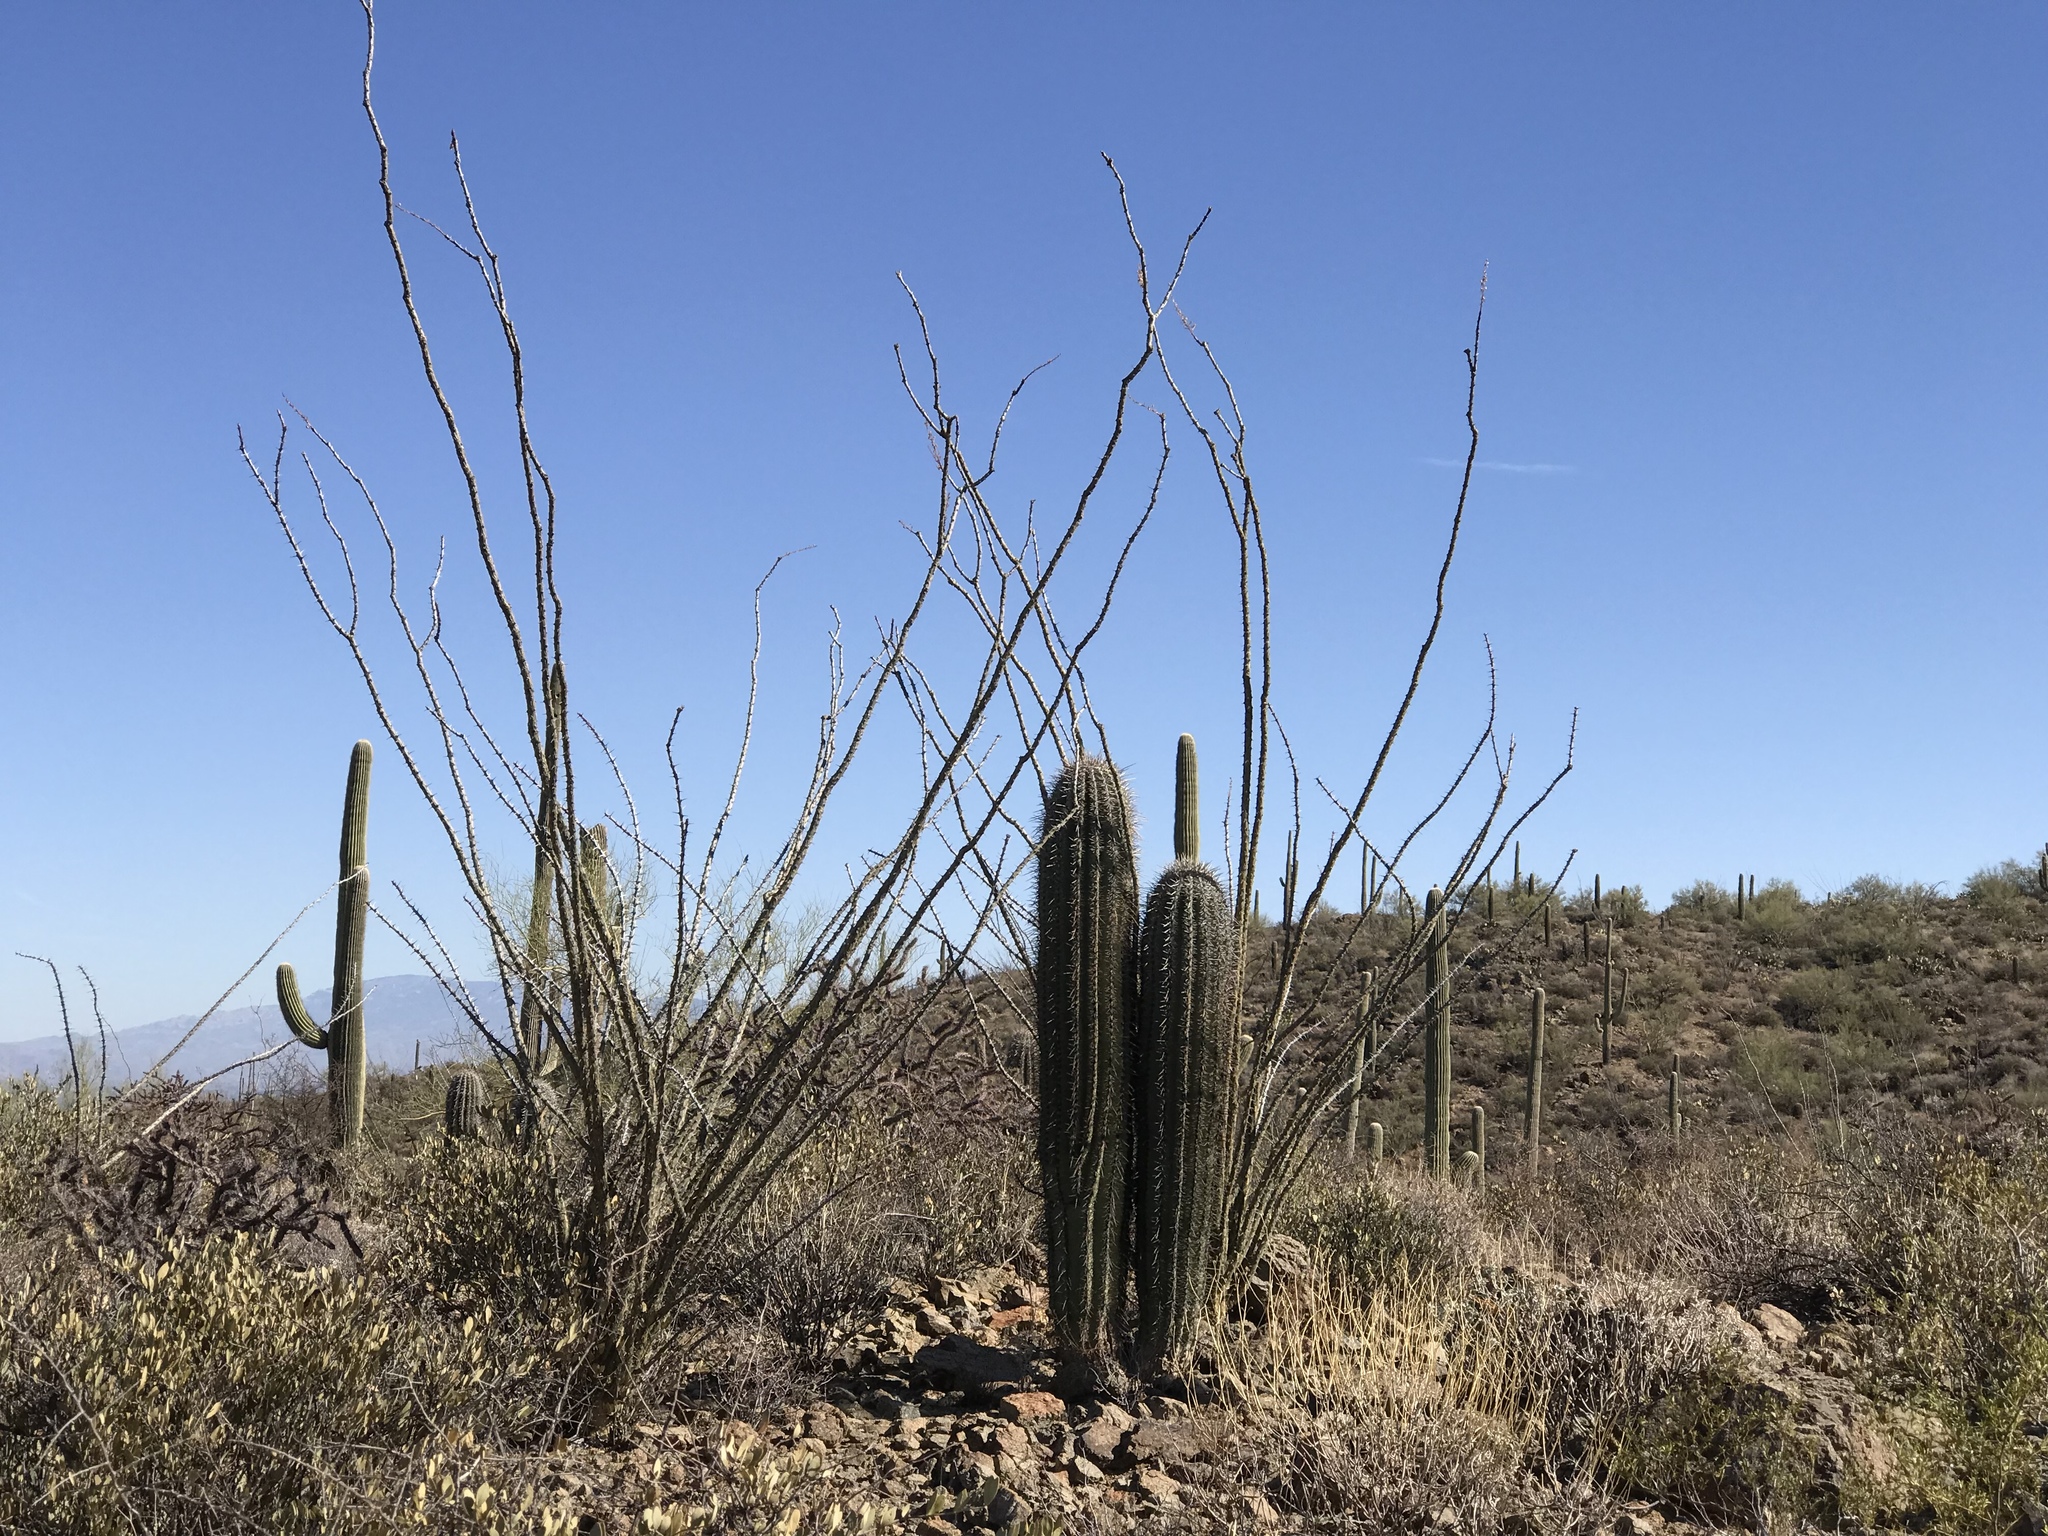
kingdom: Plantae
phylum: Tracheophyta
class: Magnoliopsida
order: Ericales
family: Fouquieriaceae
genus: Fouquieria
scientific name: Fouquieria splendens
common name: Vine-cactus
